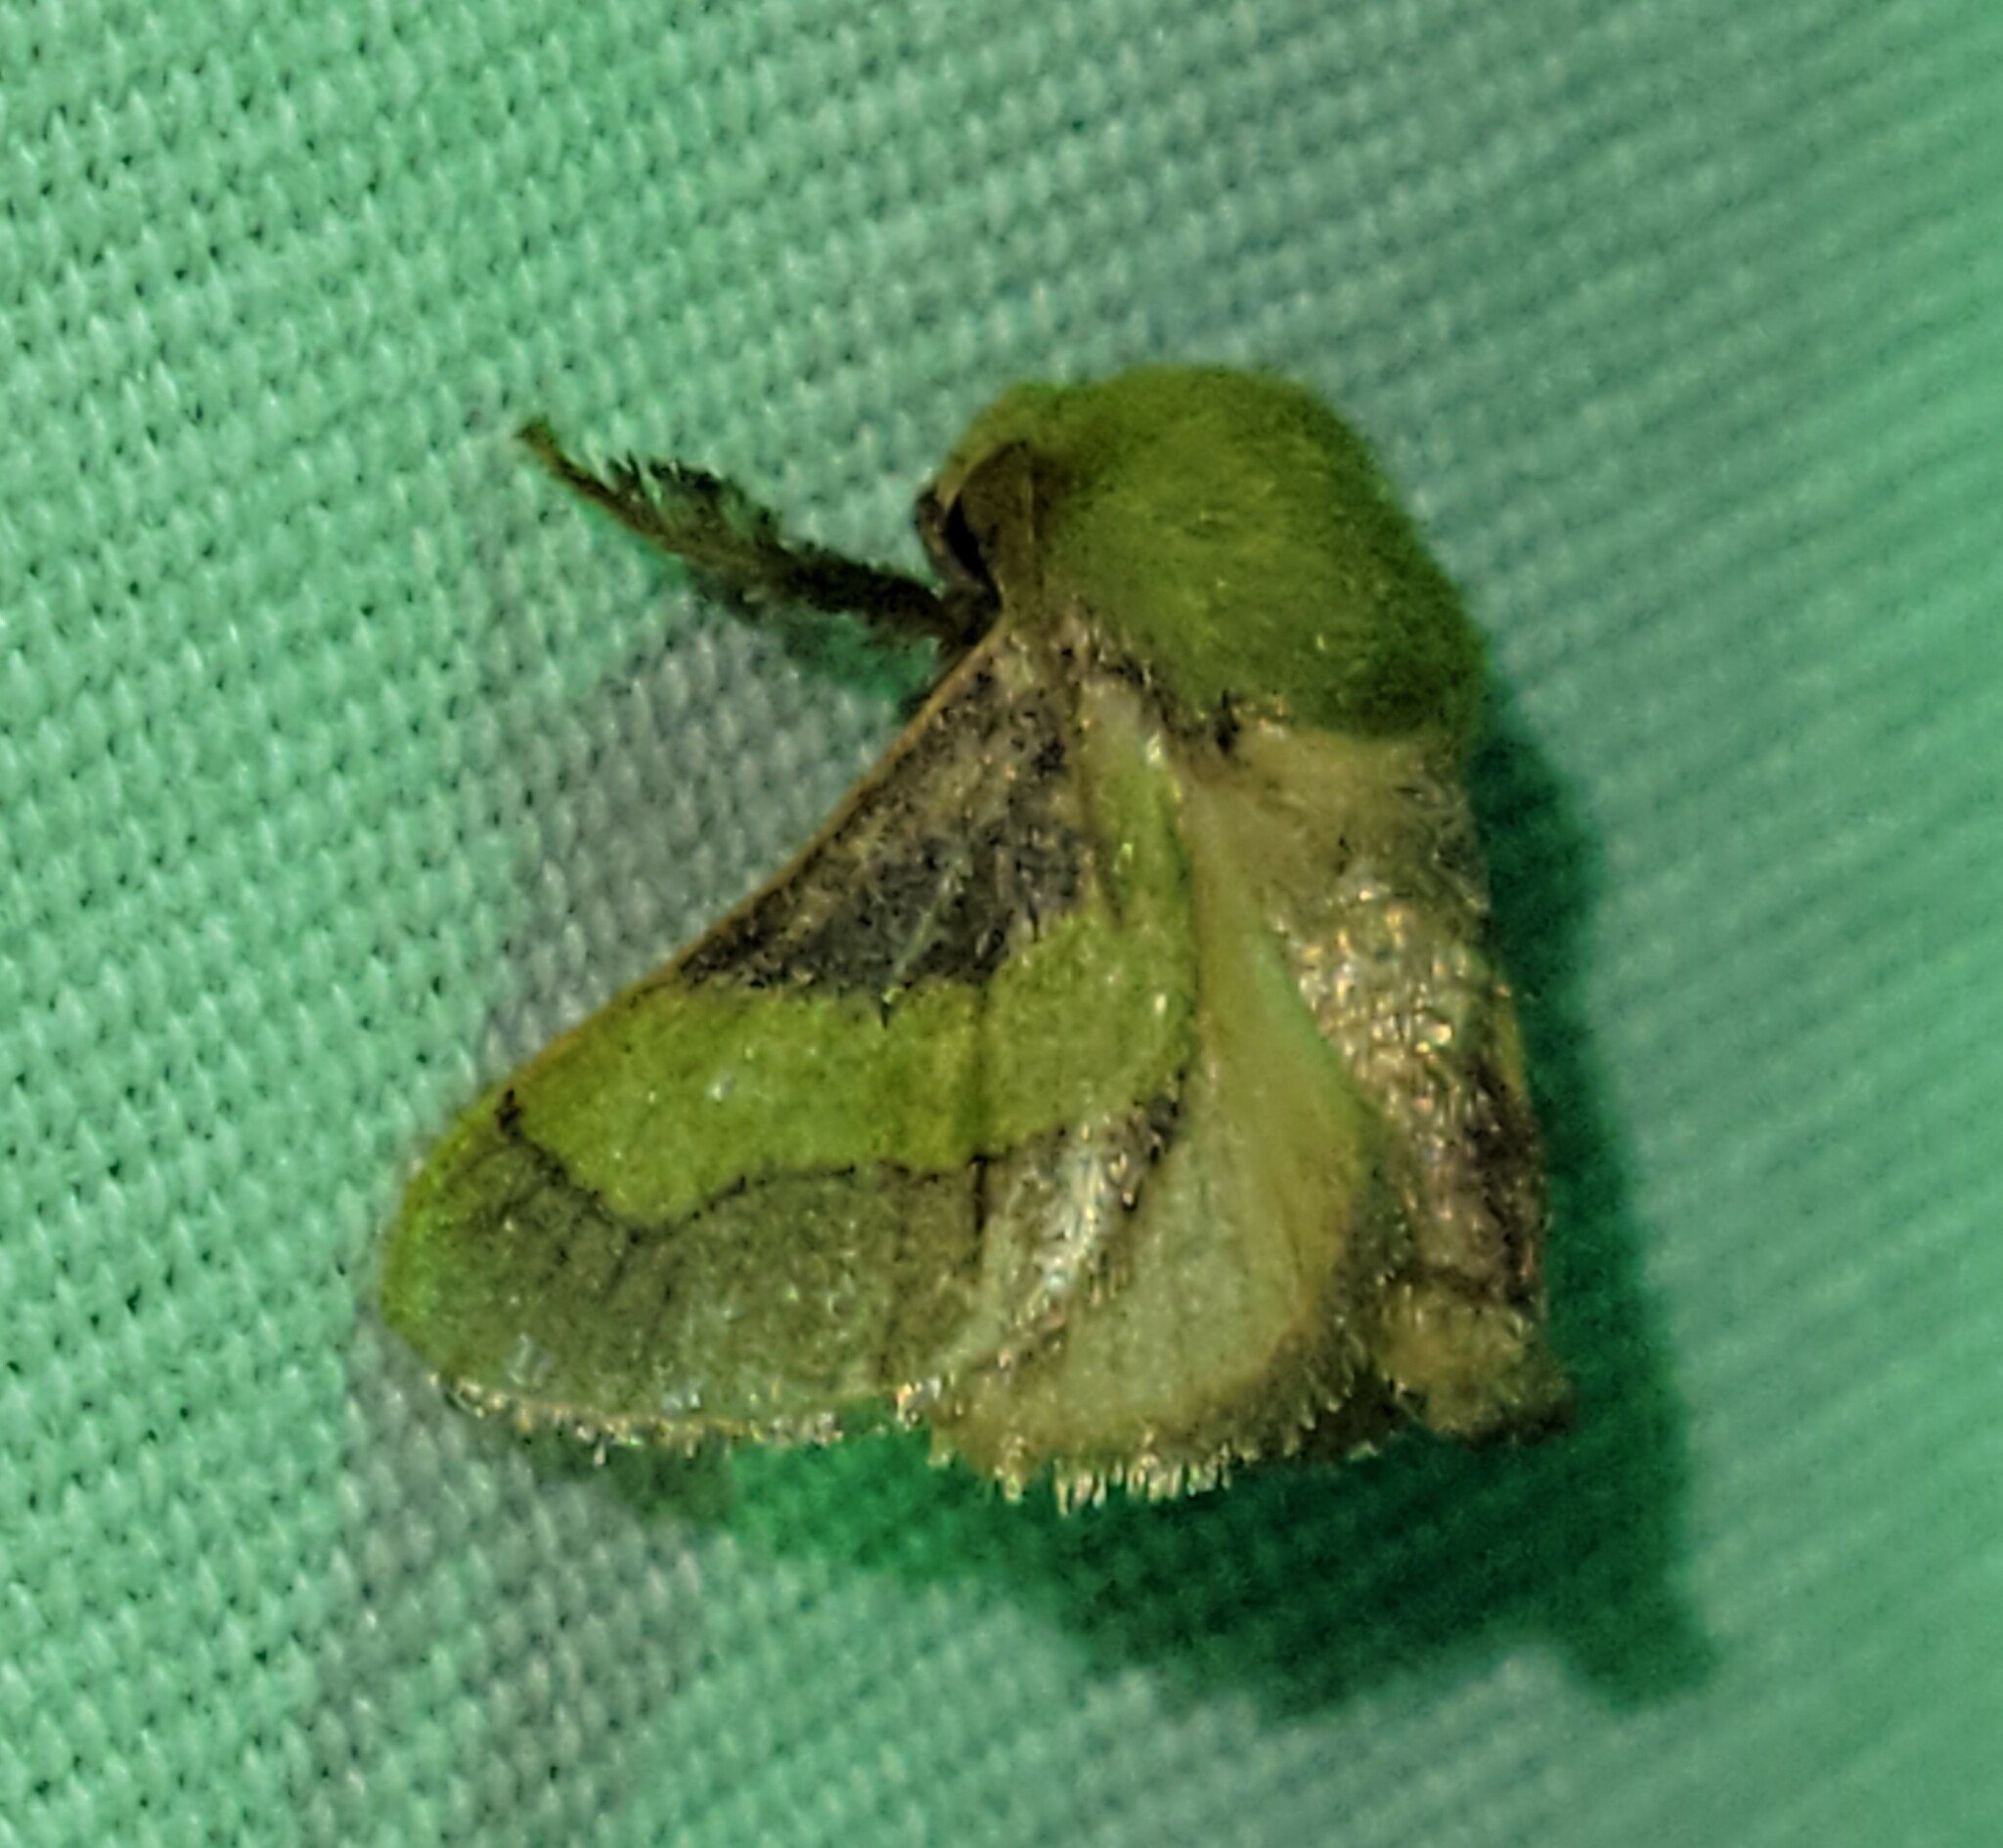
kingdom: Animalia
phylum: Arthropoda
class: Insecta
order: Lepidoptera
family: Limacodidae
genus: Parasa
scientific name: Parasa chloris
